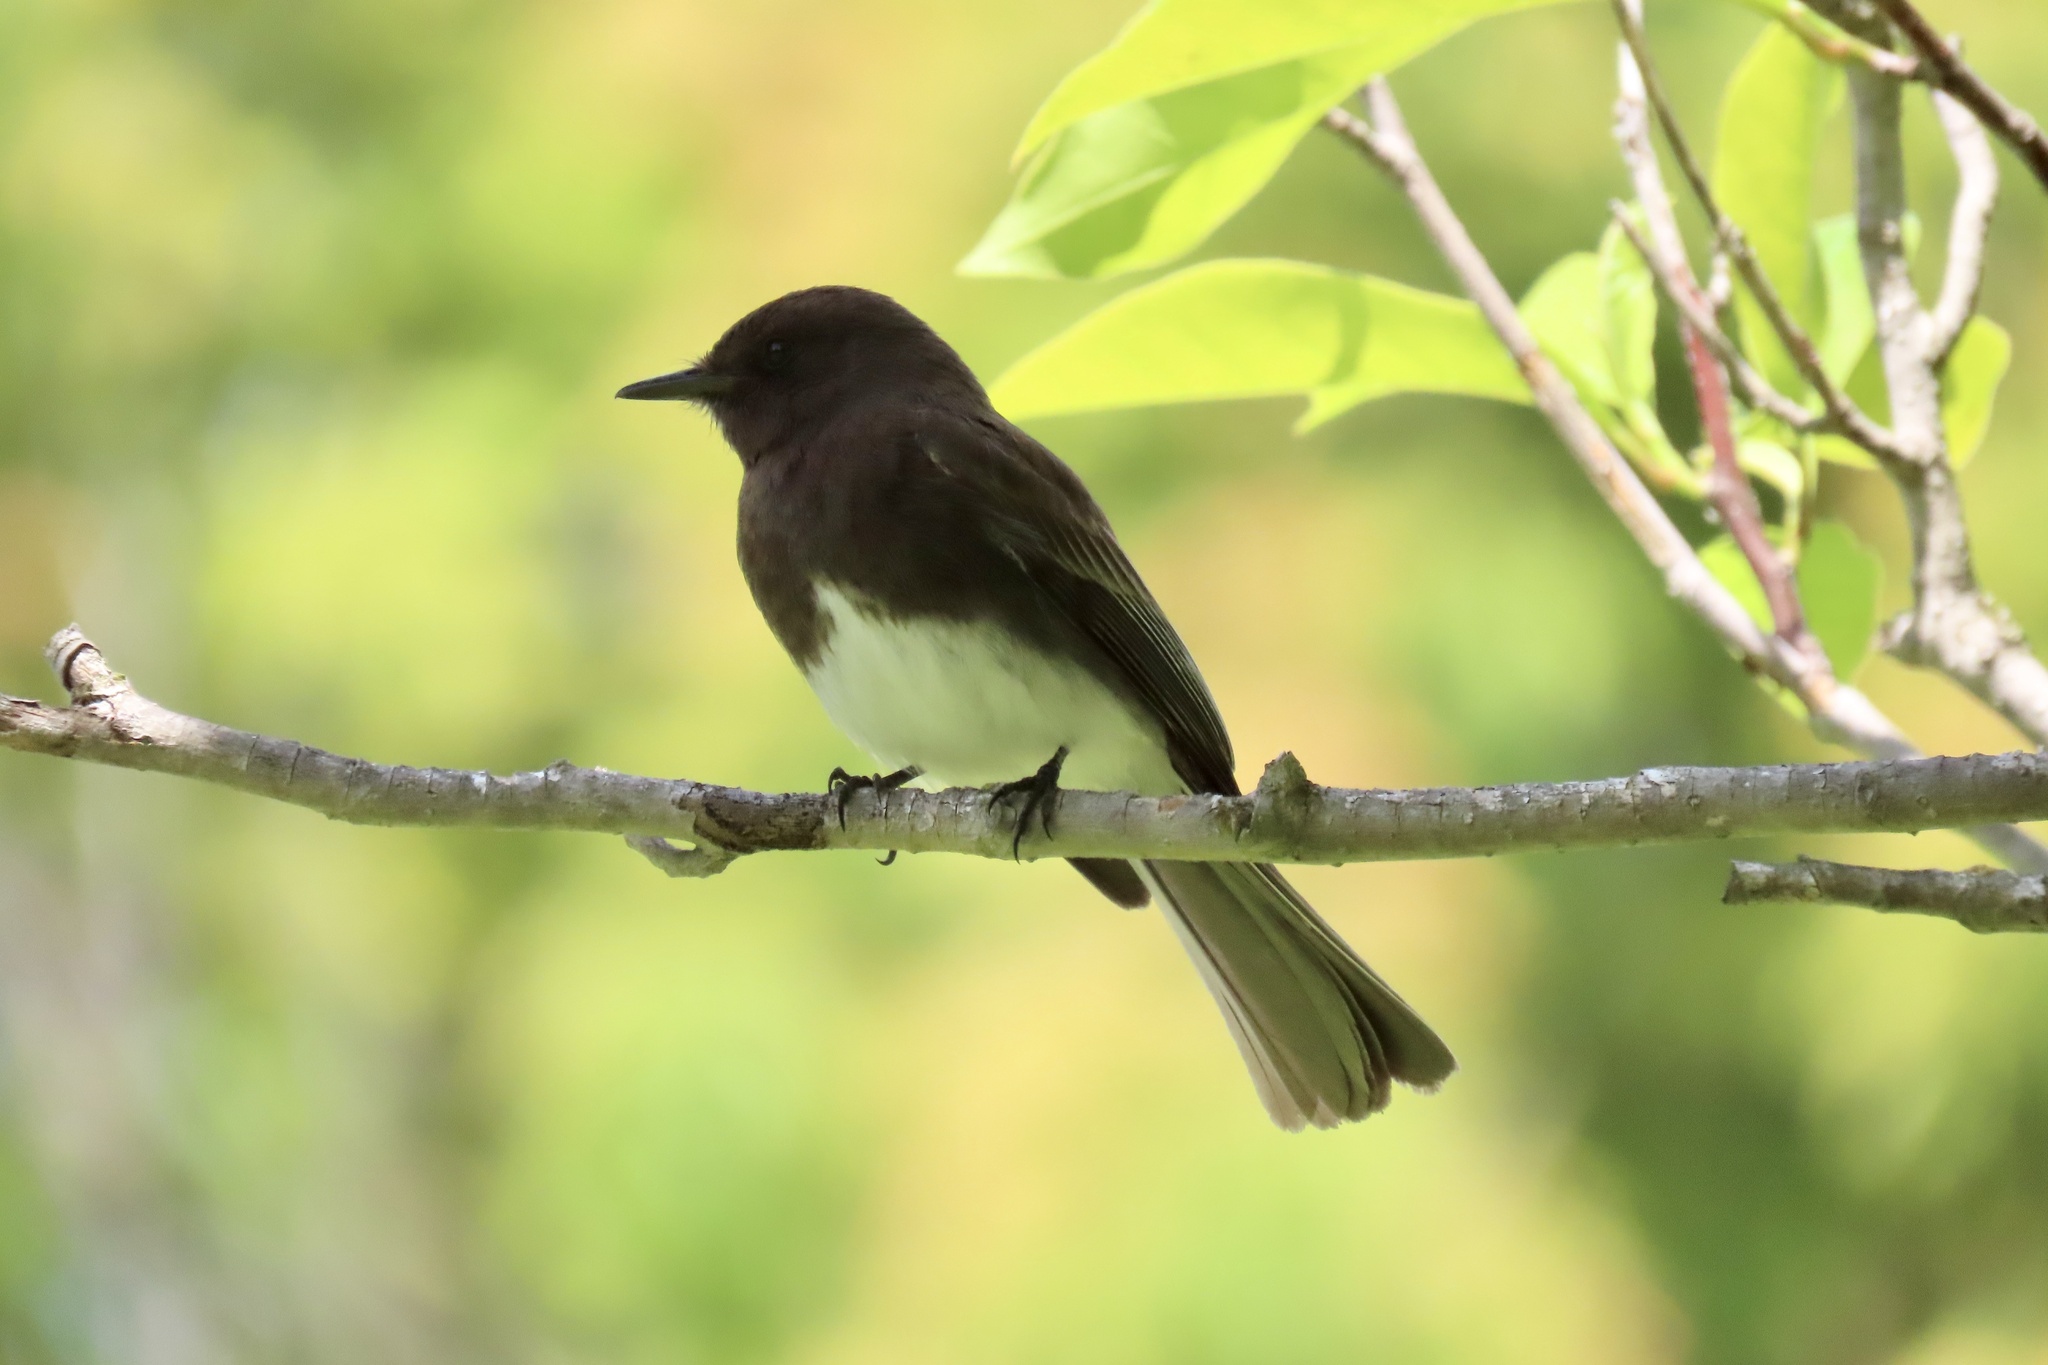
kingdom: Animalia
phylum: Chordata
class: Aves
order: Passeriformes
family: Tyrannidae
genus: Sayornis
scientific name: Sayornis nigricans
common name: Black phoebe
